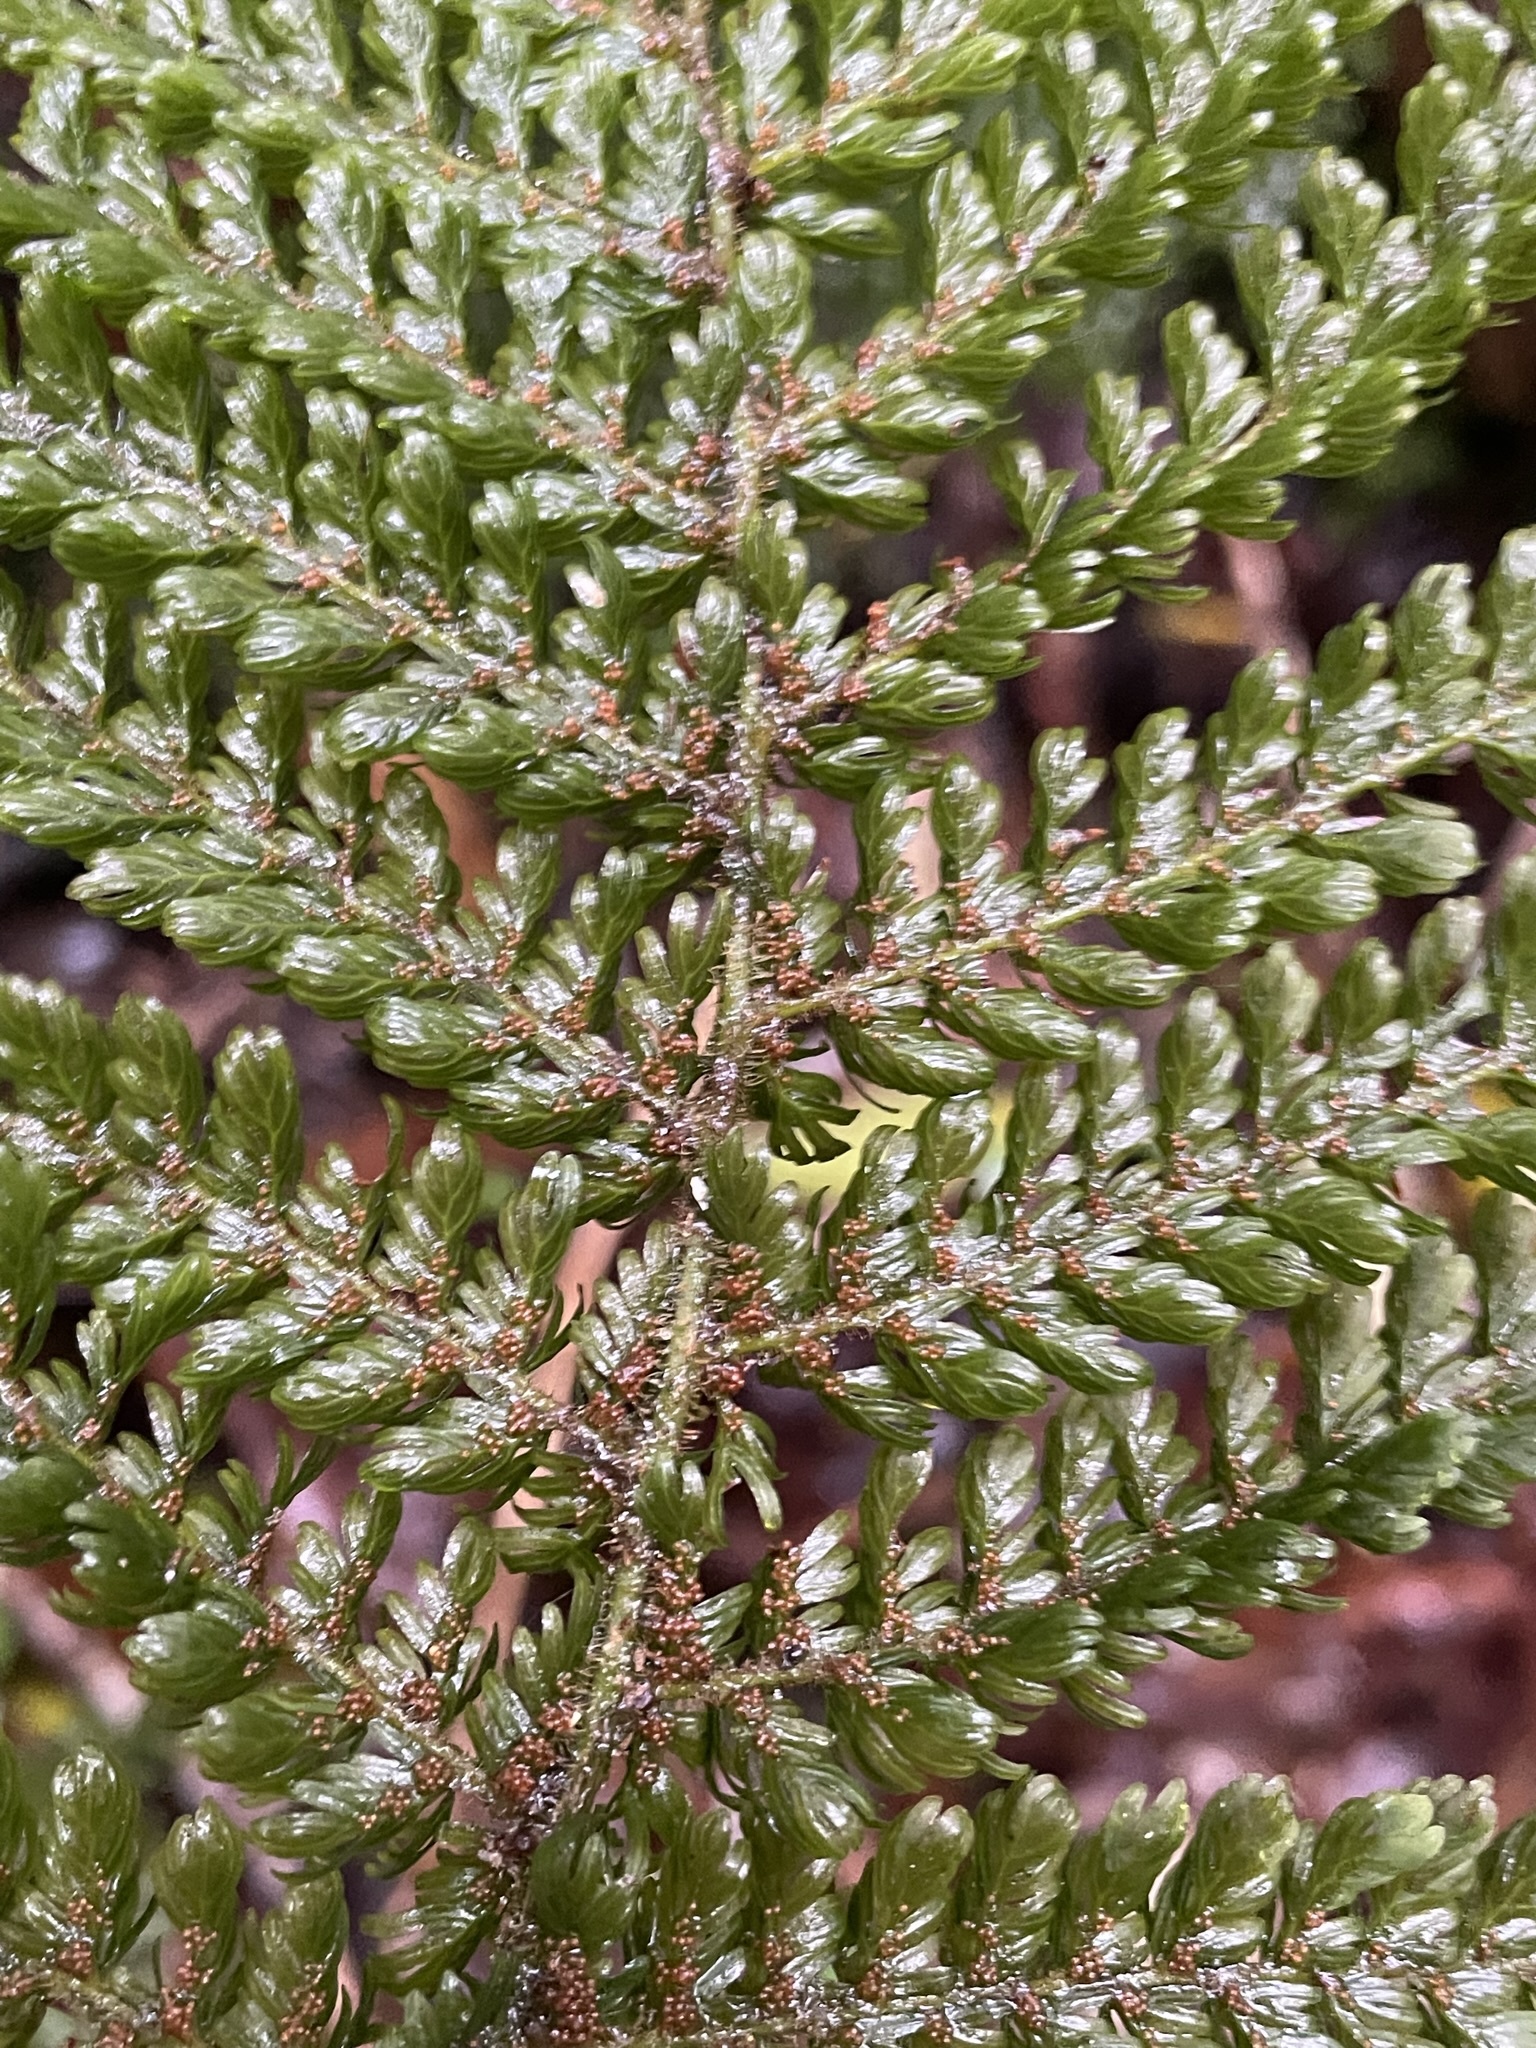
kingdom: Plantae
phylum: Tracheophyta
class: Polypodiopsida
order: Osmundales
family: Osmundaceae
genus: Leptopteris
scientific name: Leptopteris superba
